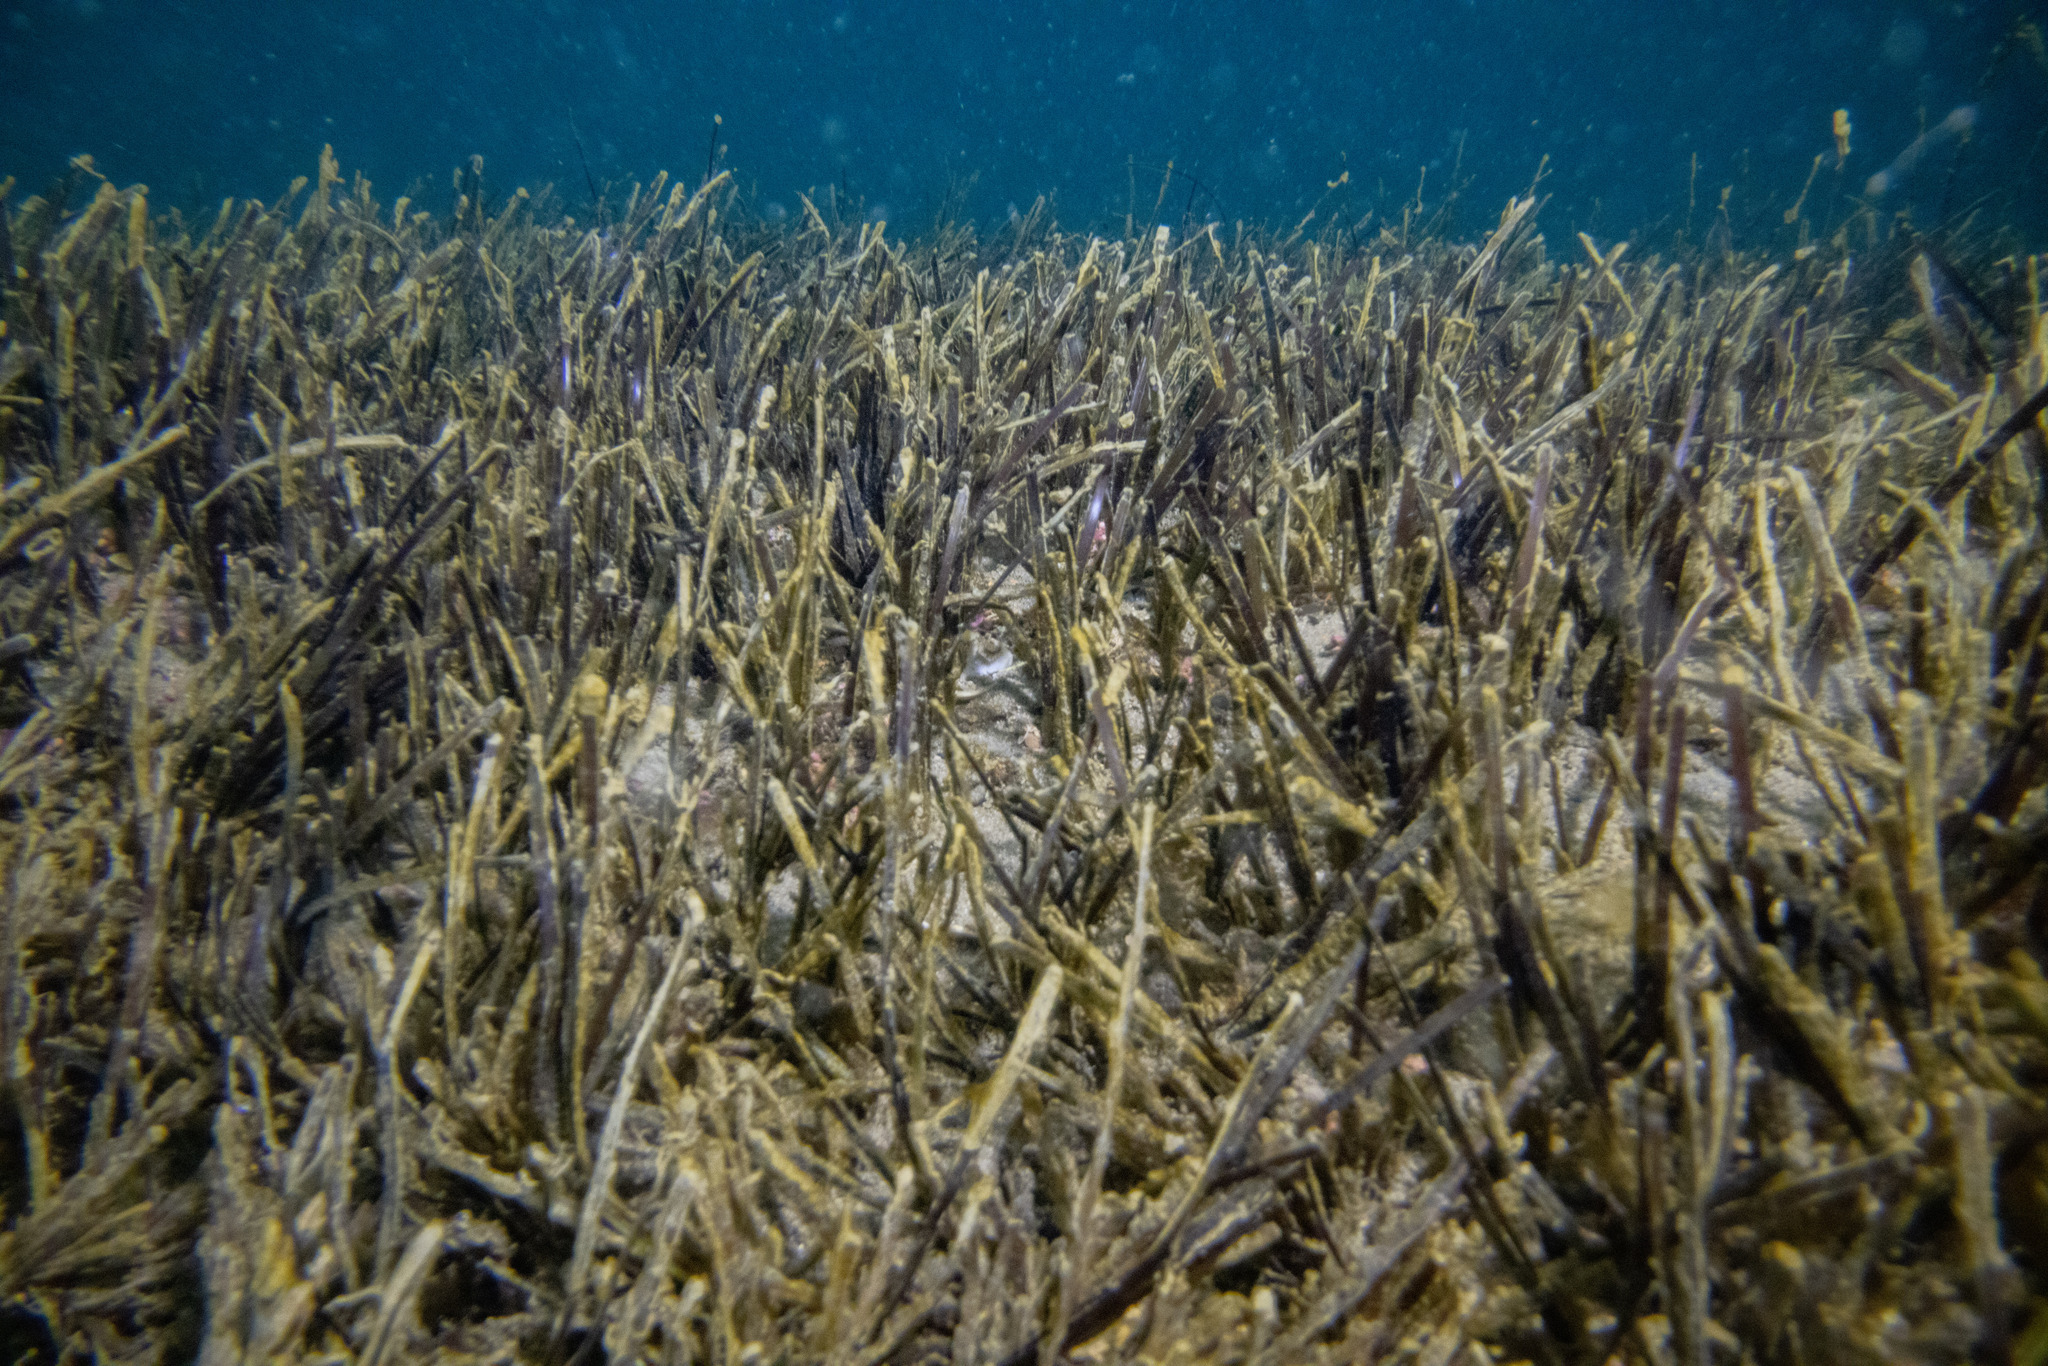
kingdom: Plantae
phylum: Tracheophyta
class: Liliopsida
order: Alismatales
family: Zosteraceae
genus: Zostera
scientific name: Zostera novazelandica
